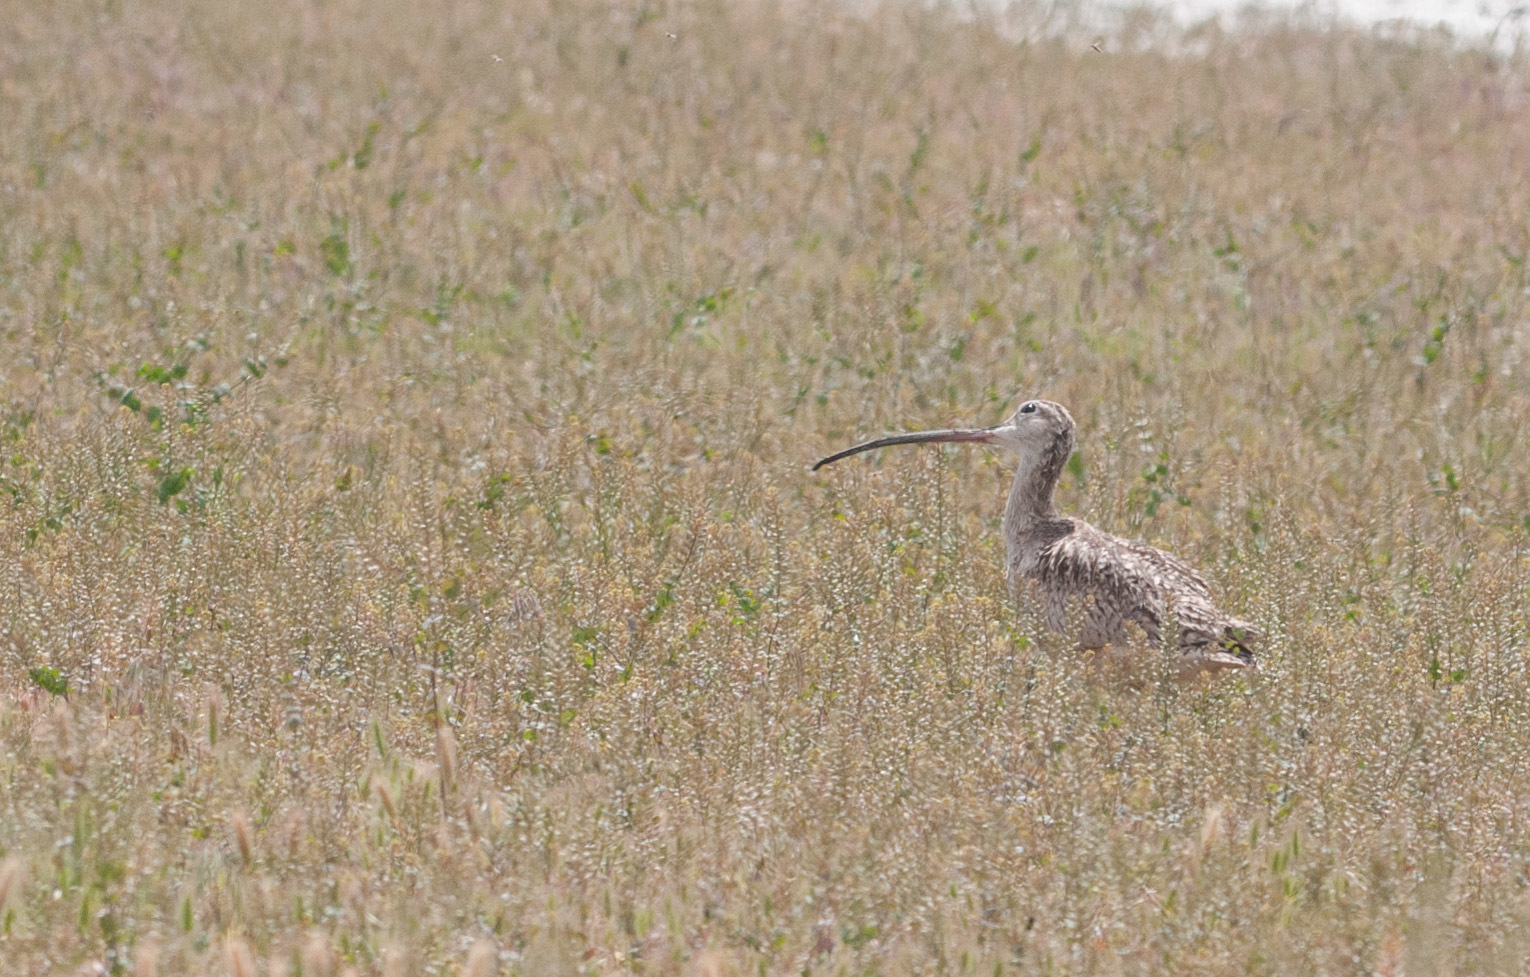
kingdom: Animalia
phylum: Chordata
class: Aves
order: Charadriiformes
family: Scolopacidae
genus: Numenius
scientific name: Numenius americanus
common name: Long-billed curlew
